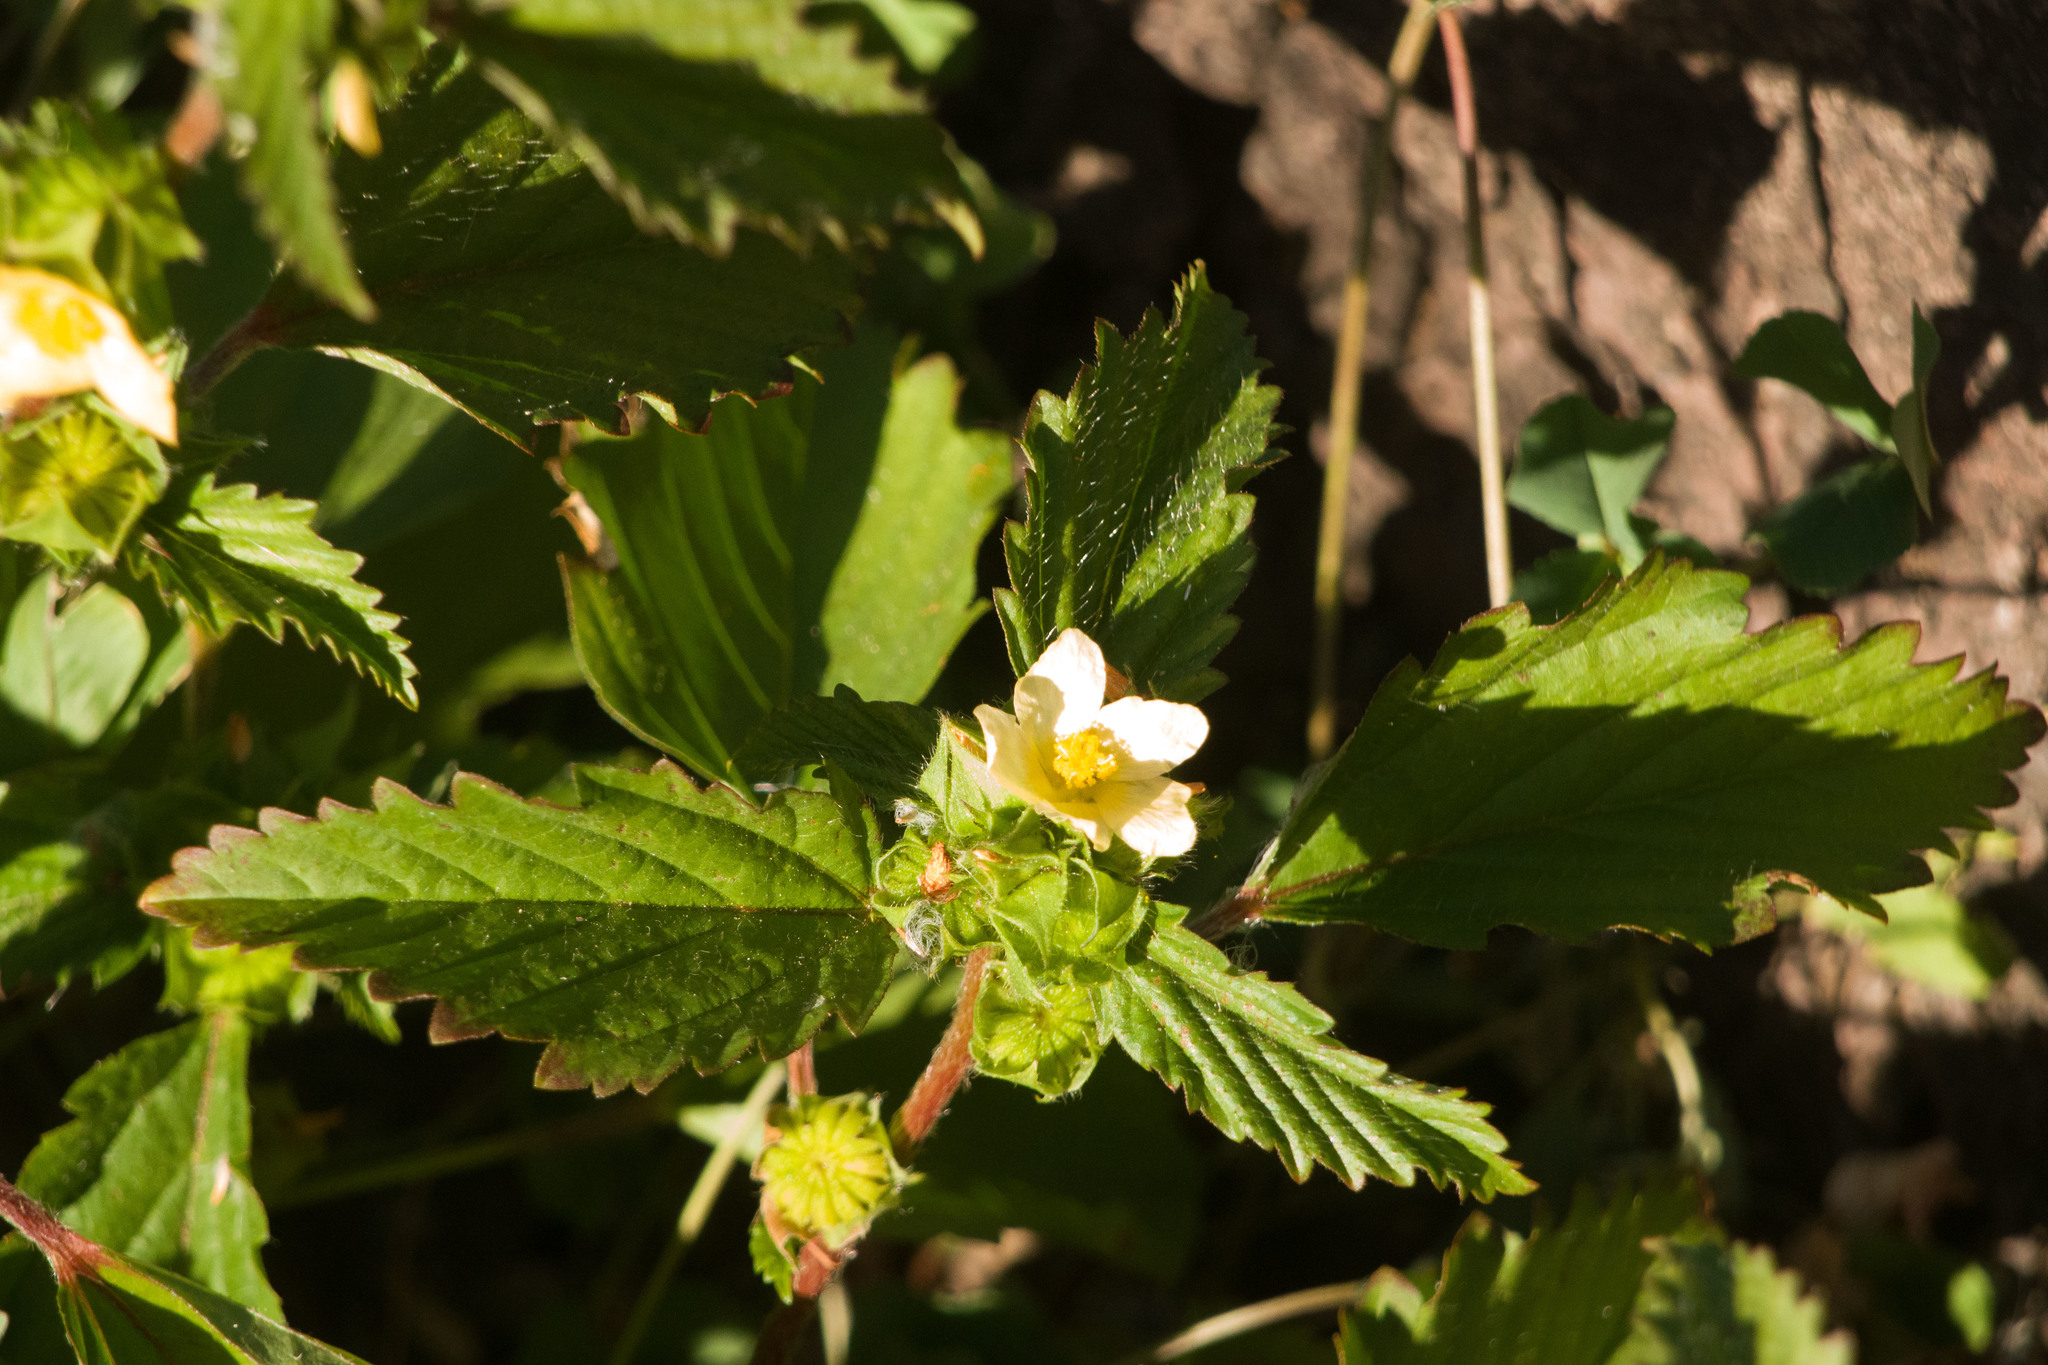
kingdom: Plantae
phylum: Tracheophyta
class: Magnoliopsida
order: Malvales
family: Malvaceae
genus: Malvastrum
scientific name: Malvastrum coromandelianum
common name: Threelobe false mallow
